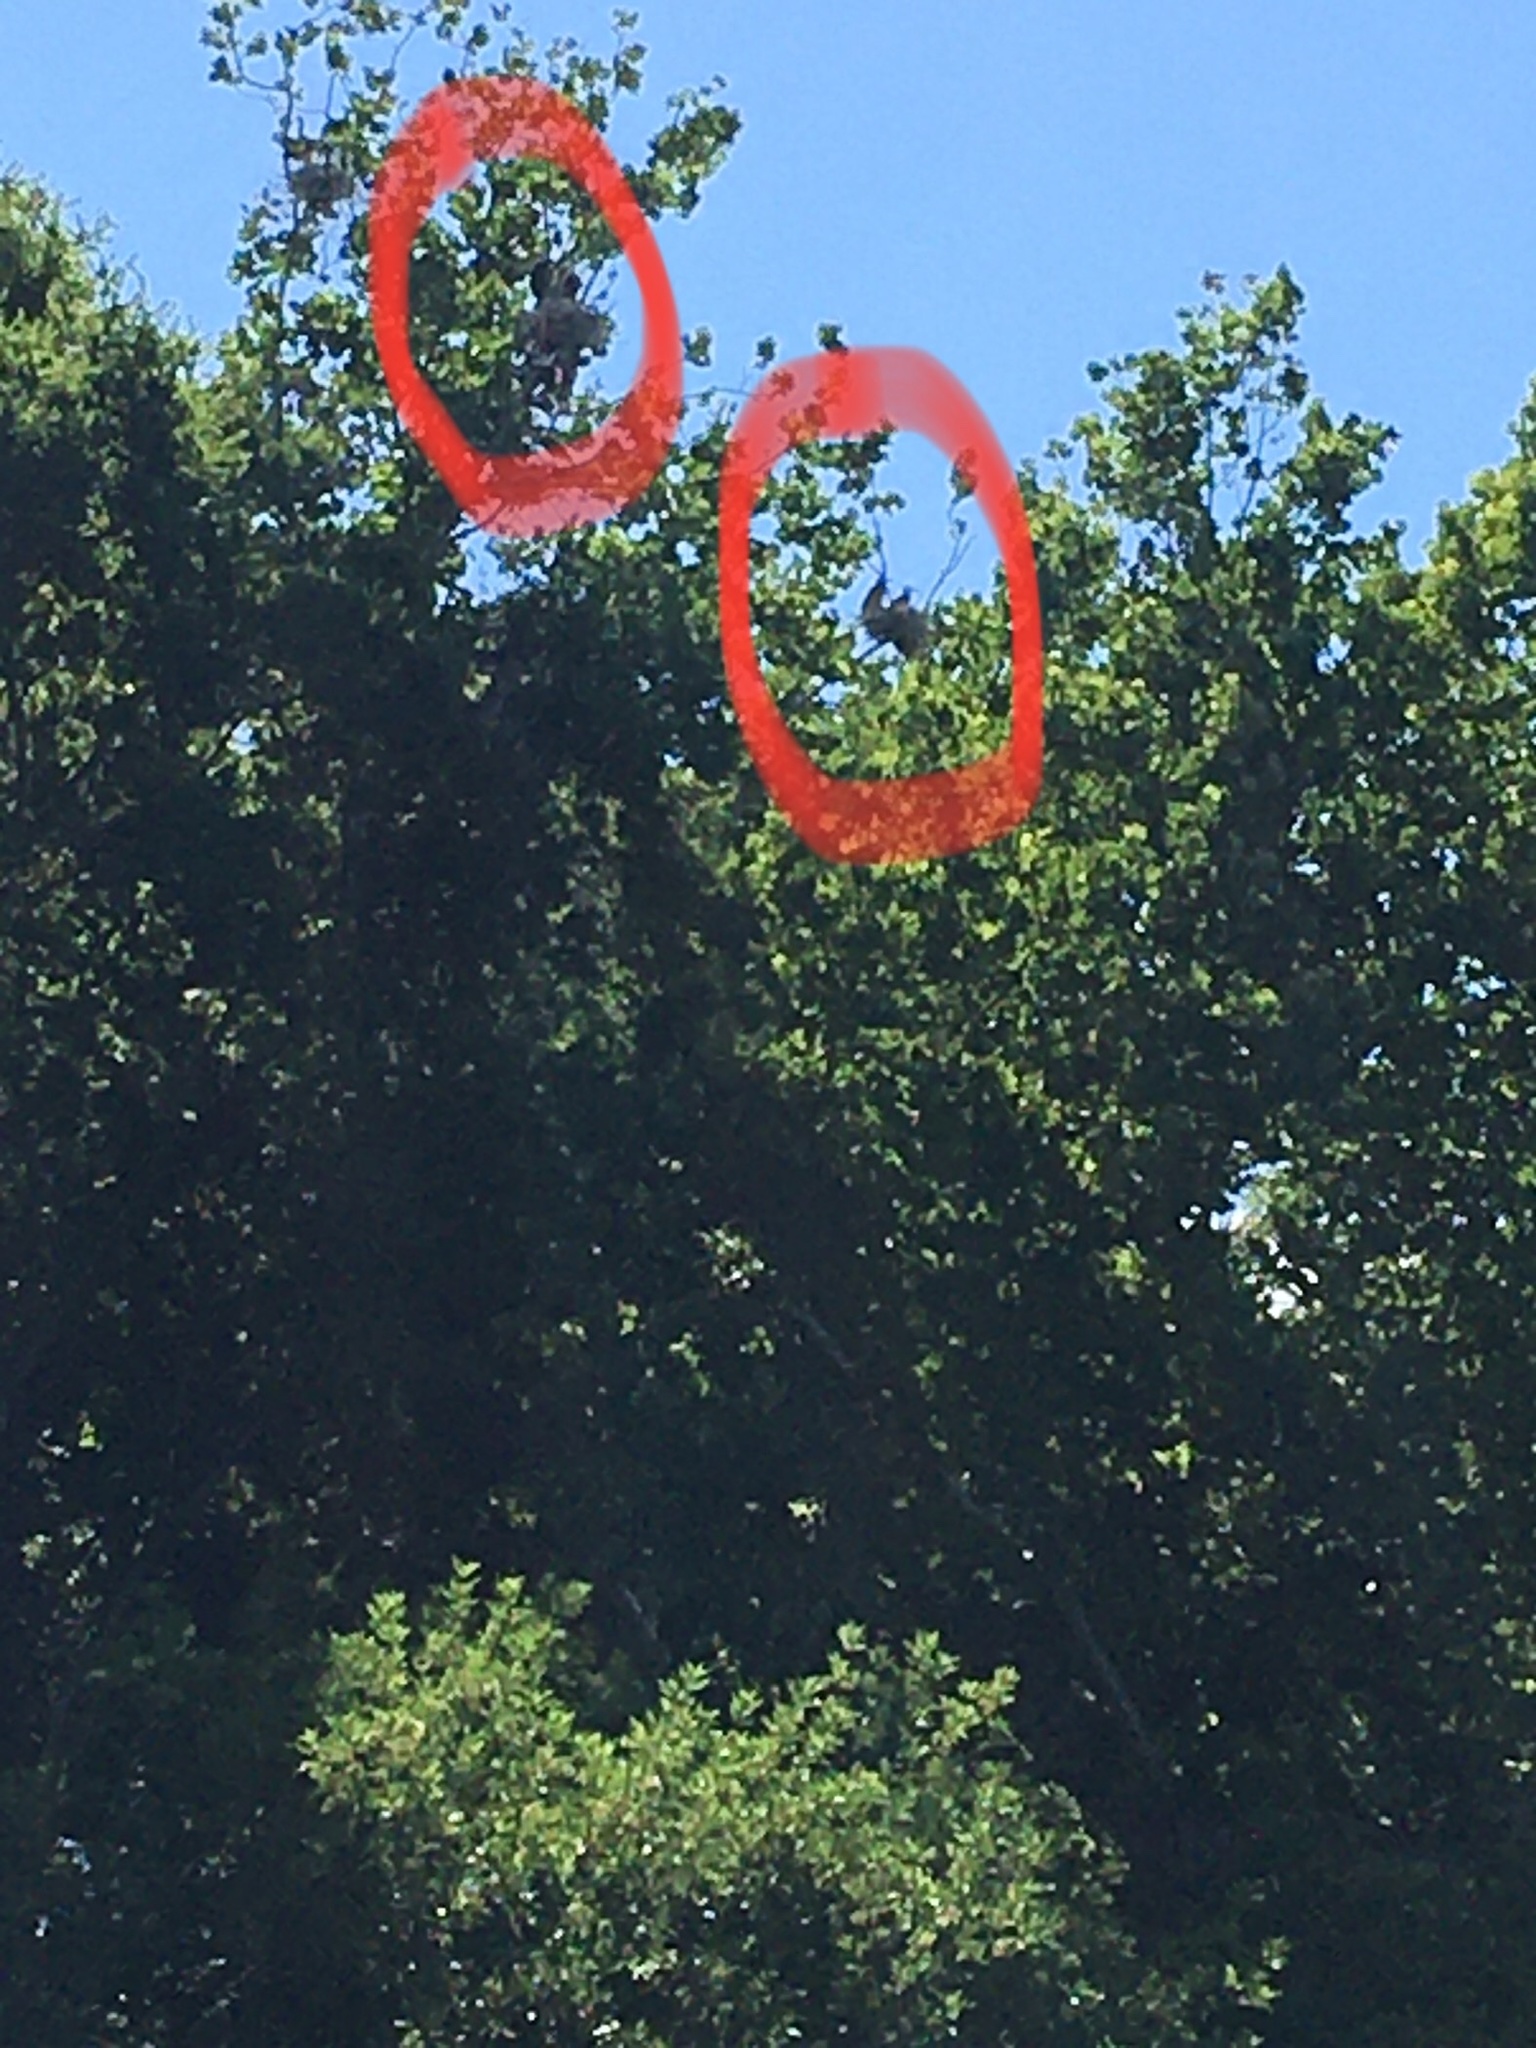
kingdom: Animalia
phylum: Chordata
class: Aves
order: Pelecaniformes
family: Ardeidae
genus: Ardea
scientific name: Ardea herodias
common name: Great blue heron
